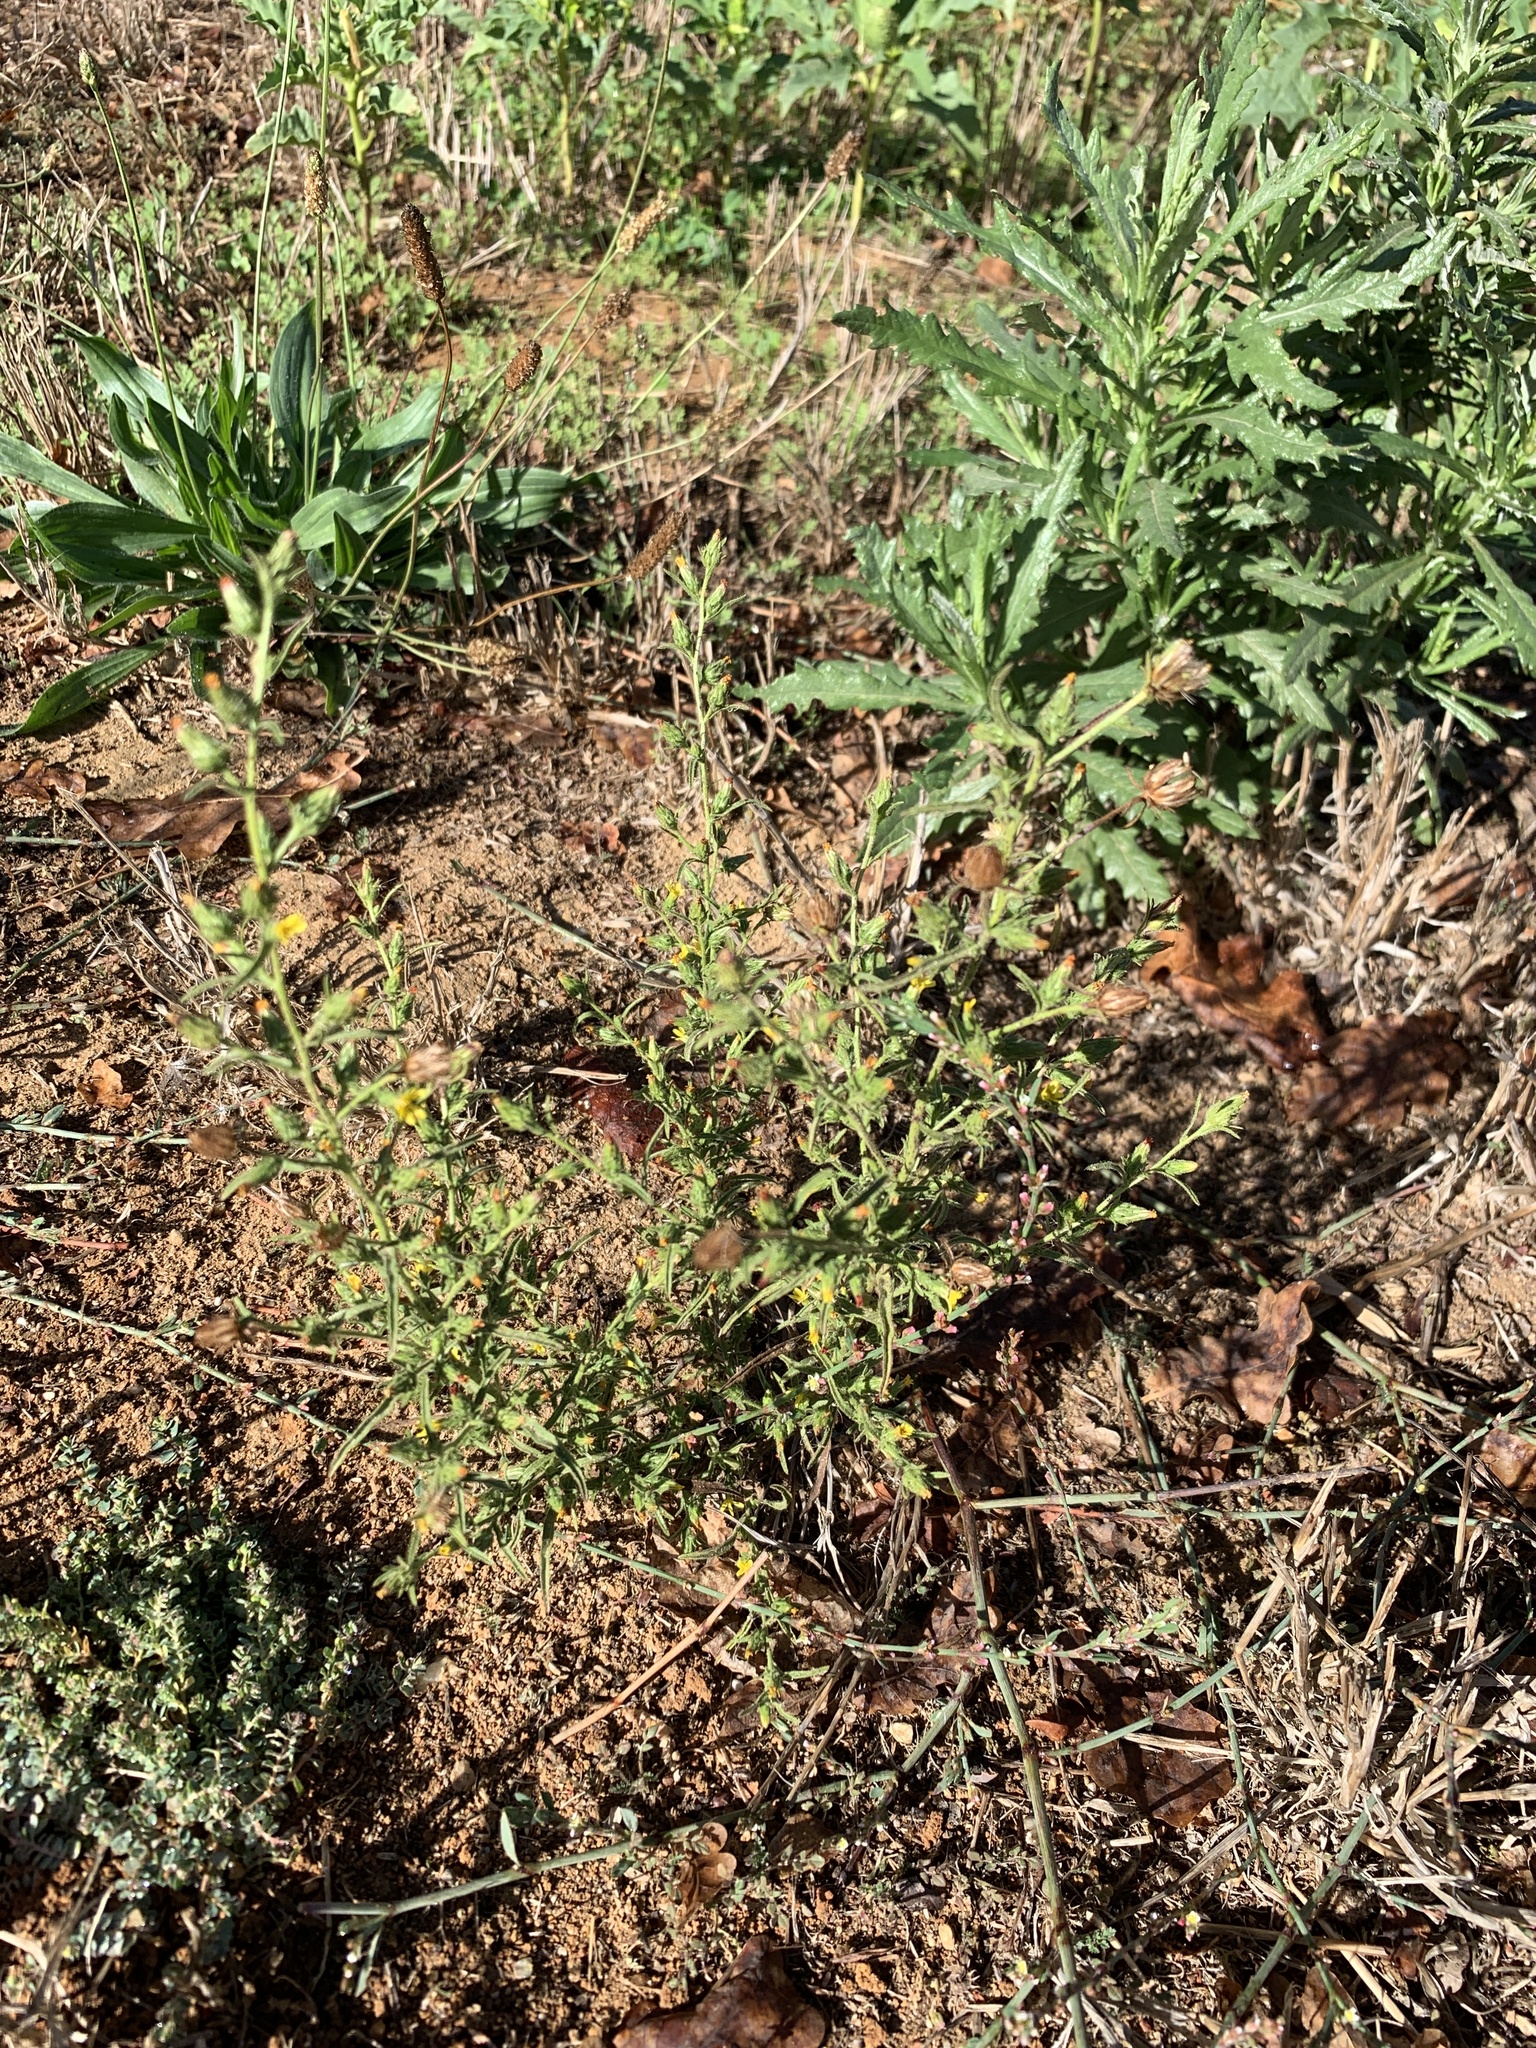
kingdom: Plantae
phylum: Tracheophyta
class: Magnoliopsida
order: Asterales
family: Asteraceae
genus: Dittrichia
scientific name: Dittrichia graveolens
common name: Stinking fleabane
